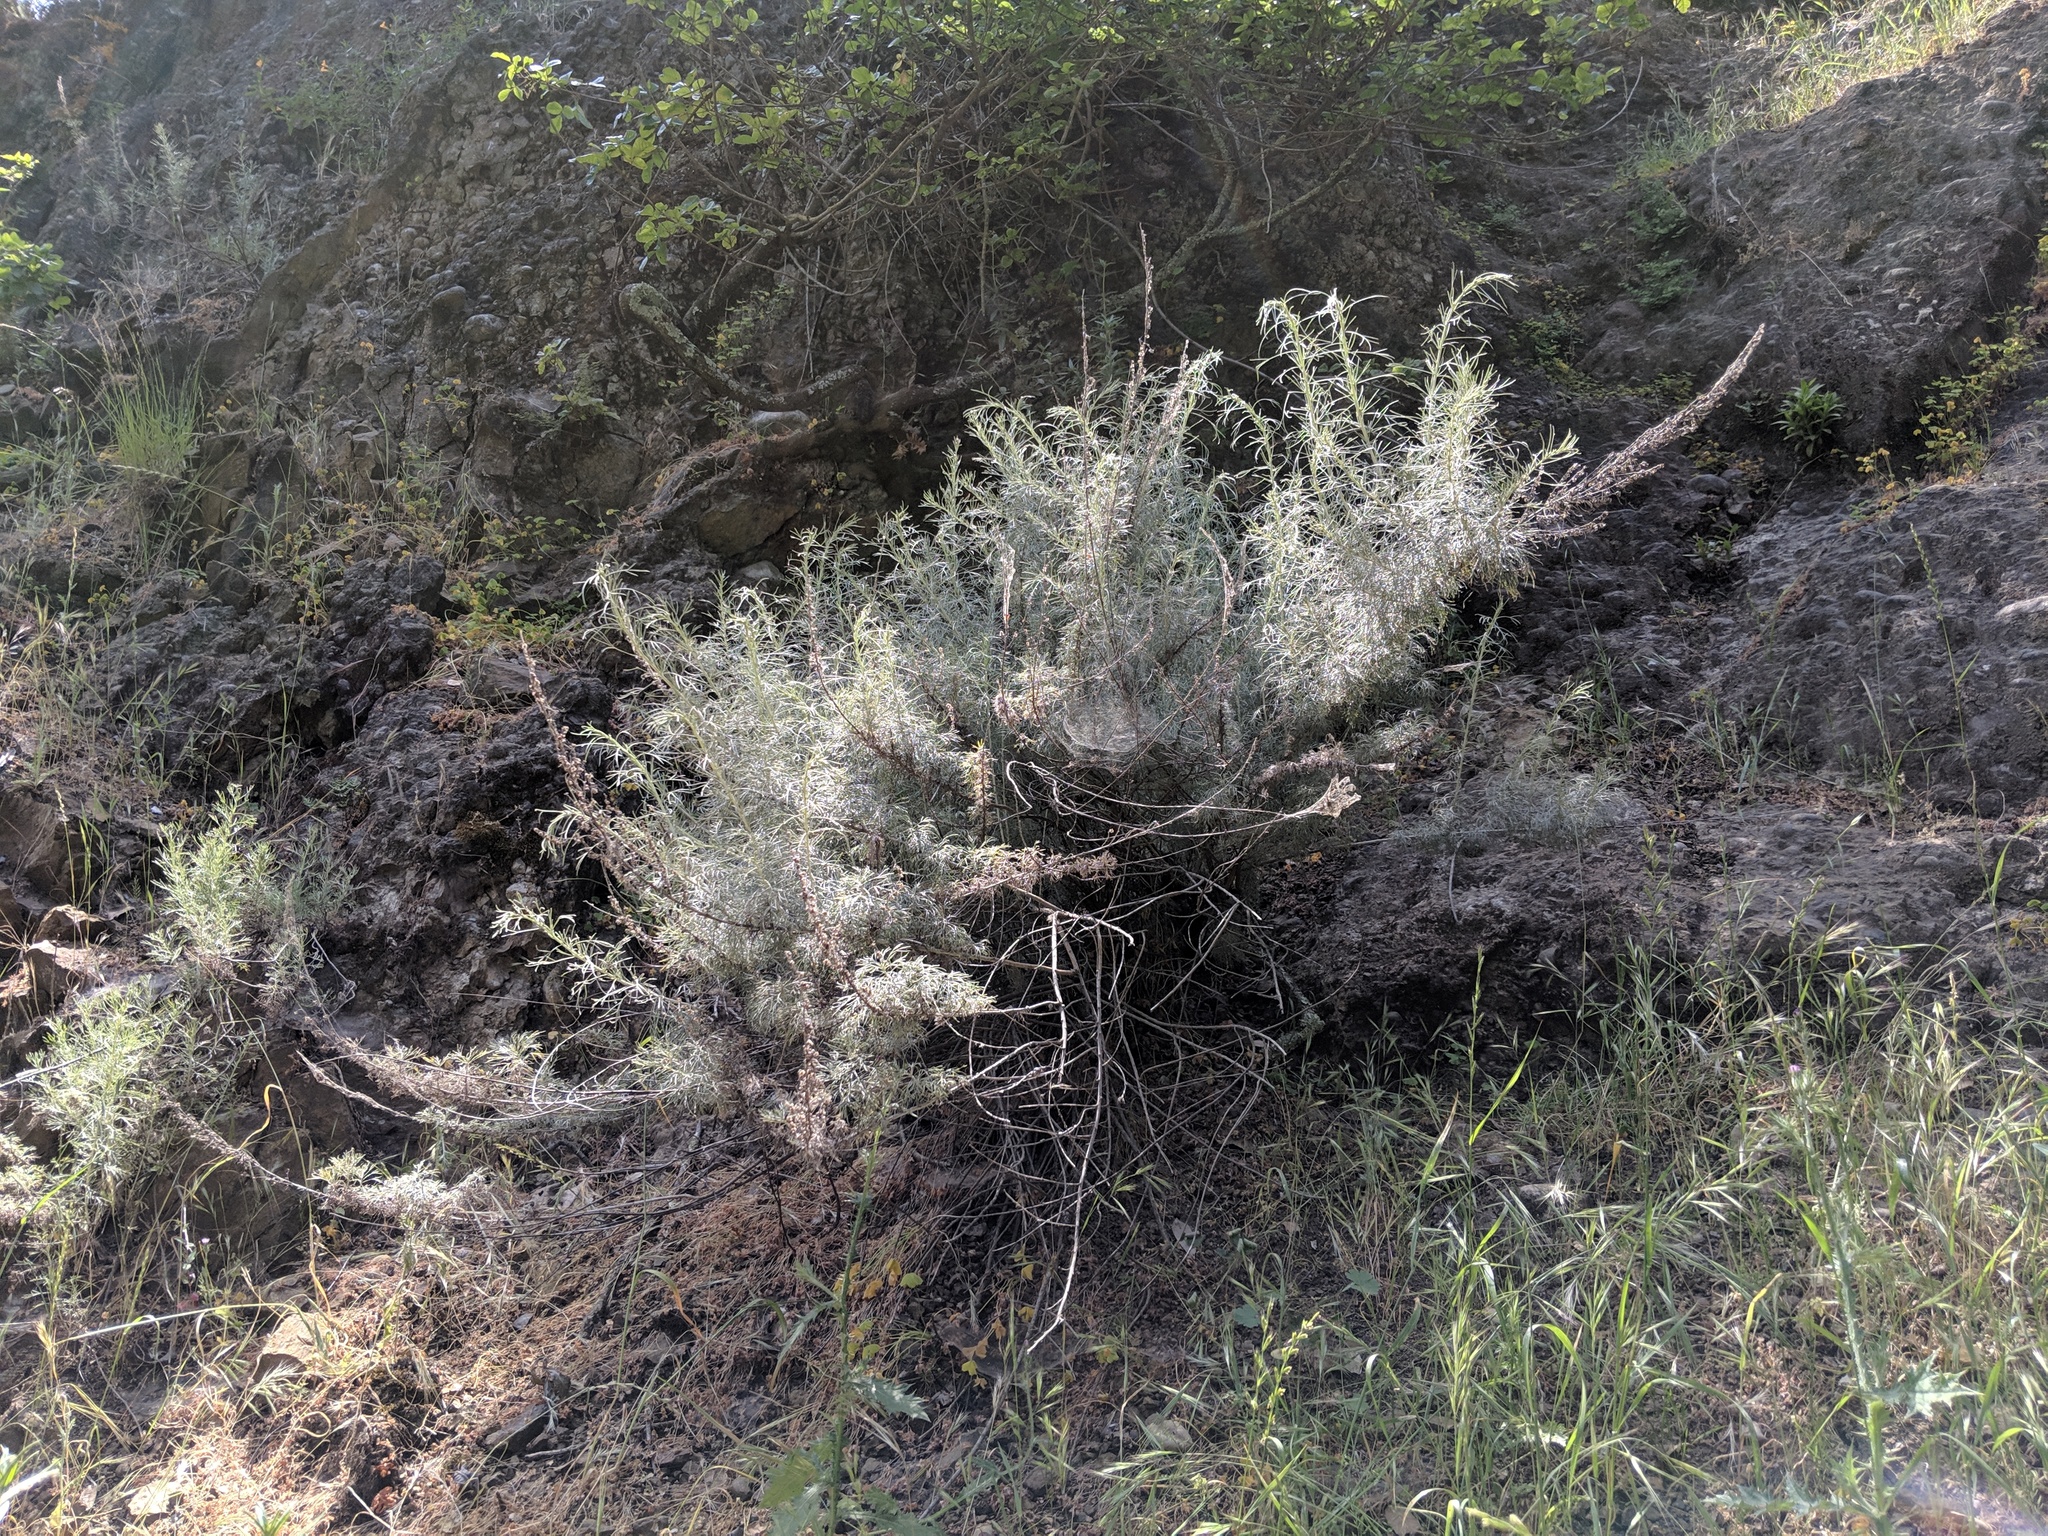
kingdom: Plantae
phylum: Tracheophyta
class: Magnoliopsida
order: Asterales
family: Asteraceae
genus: Artemisia
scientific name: Artemisia californica
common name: California sagebrush
